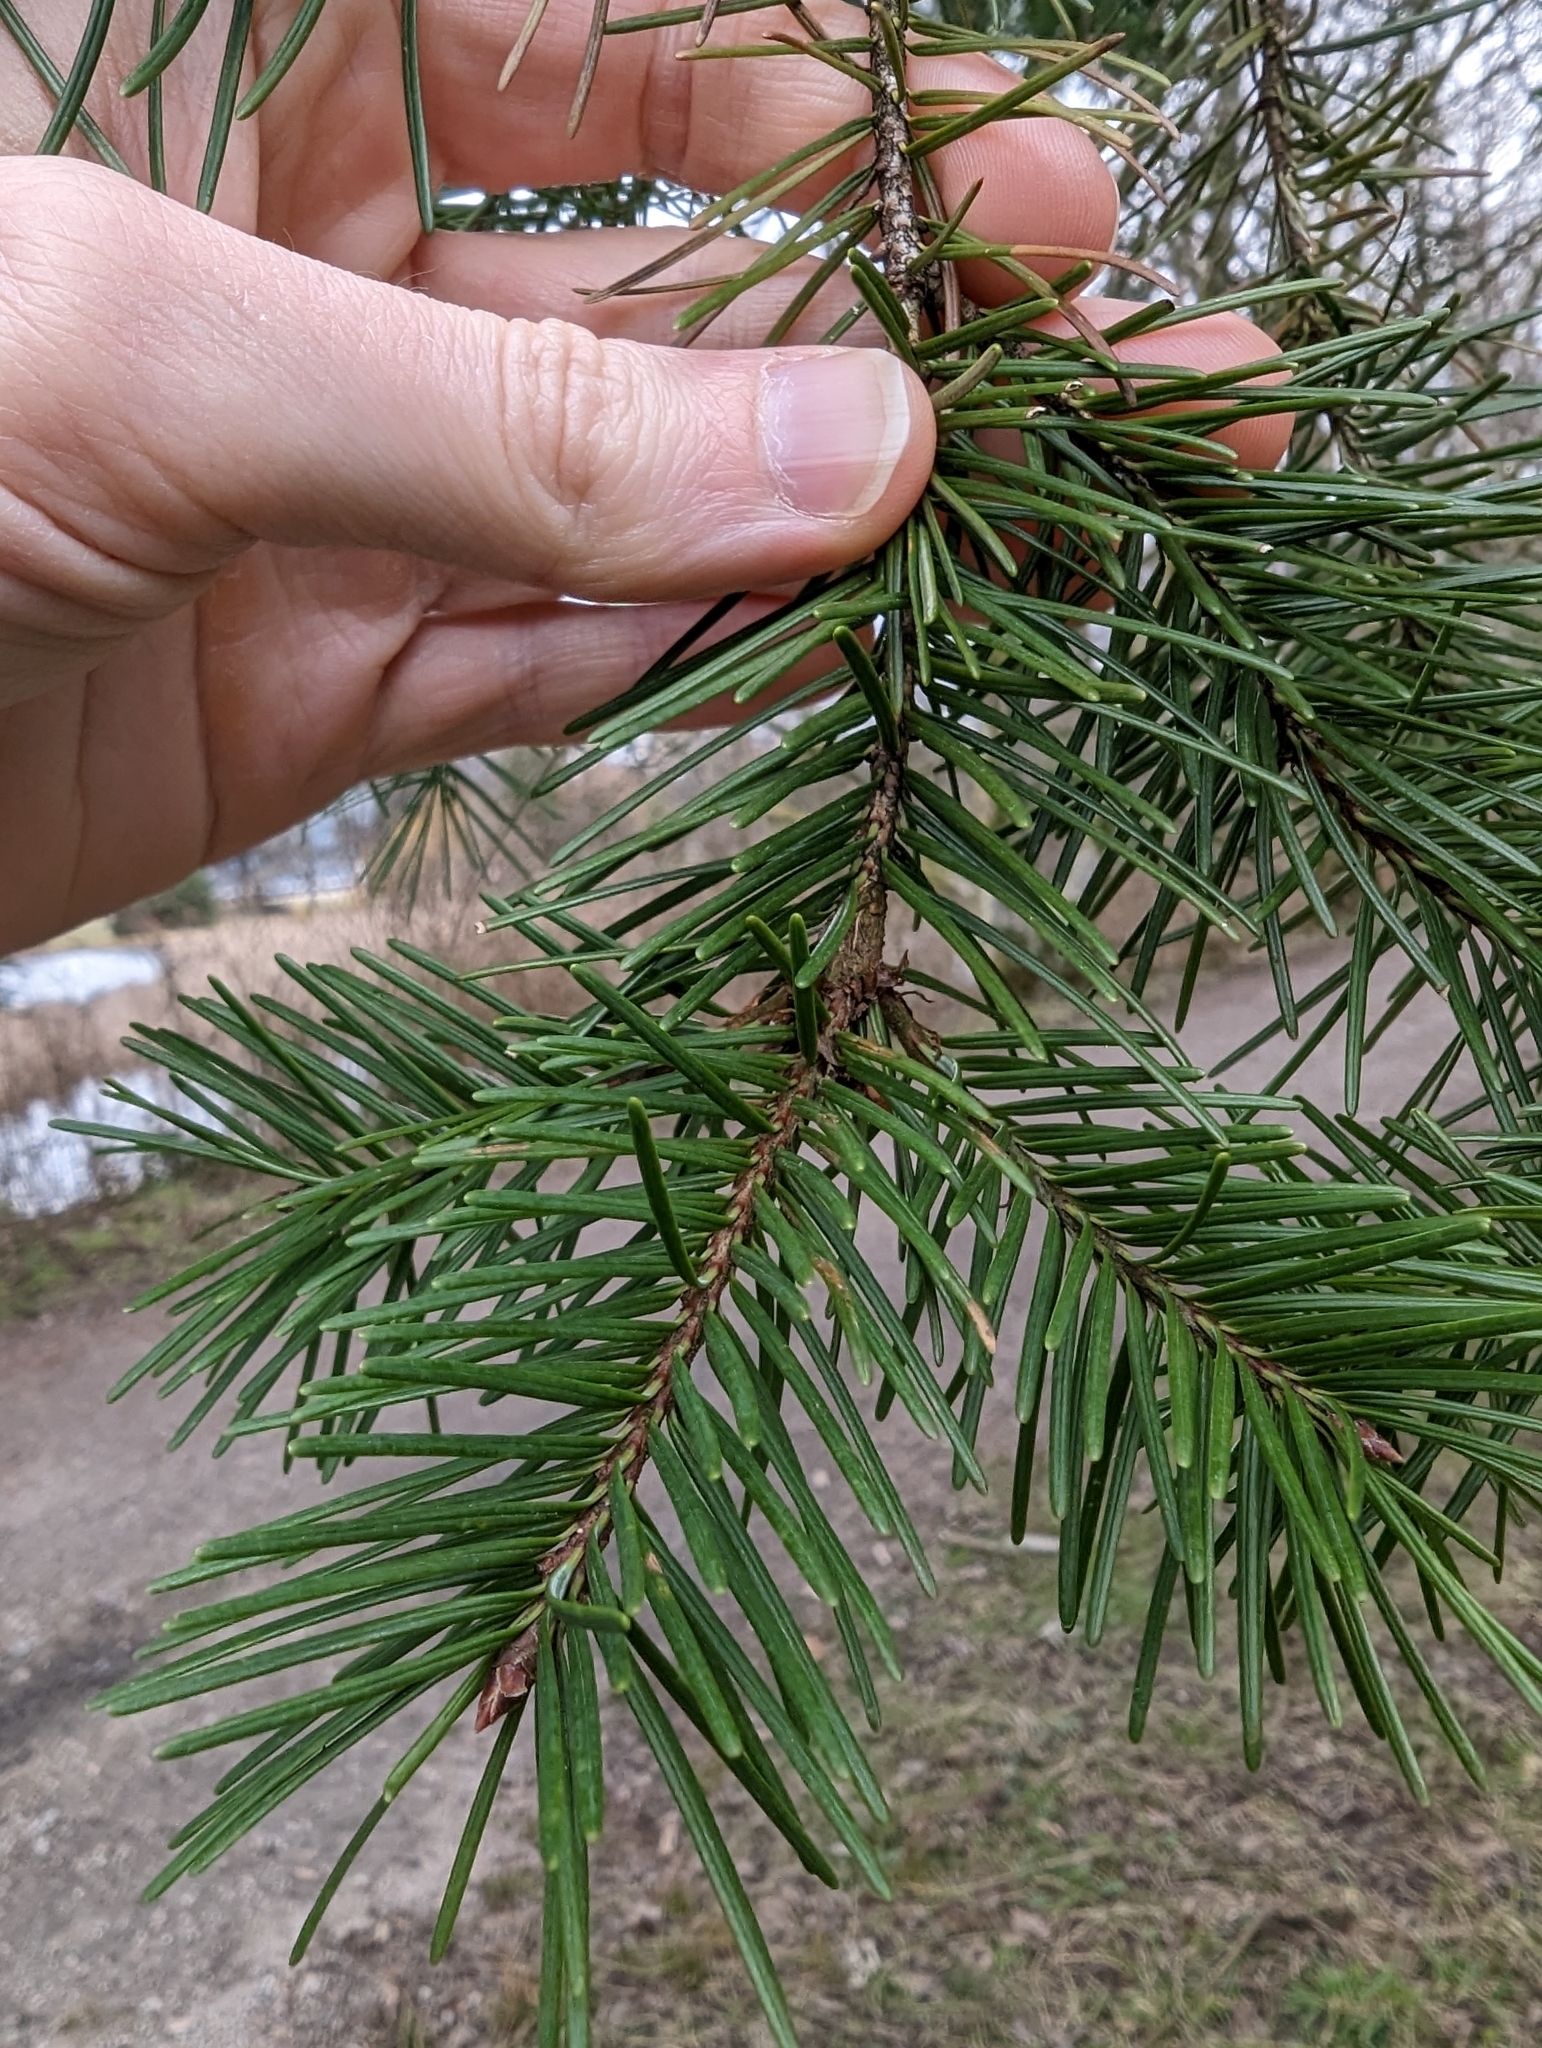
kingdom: Plantae
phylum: Tracheophyta
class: Pinopsida
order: Pinales
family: Pinaceae
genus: Pseudotsuga
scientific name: Pseudotsuga menziesii
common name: Douglas fir
